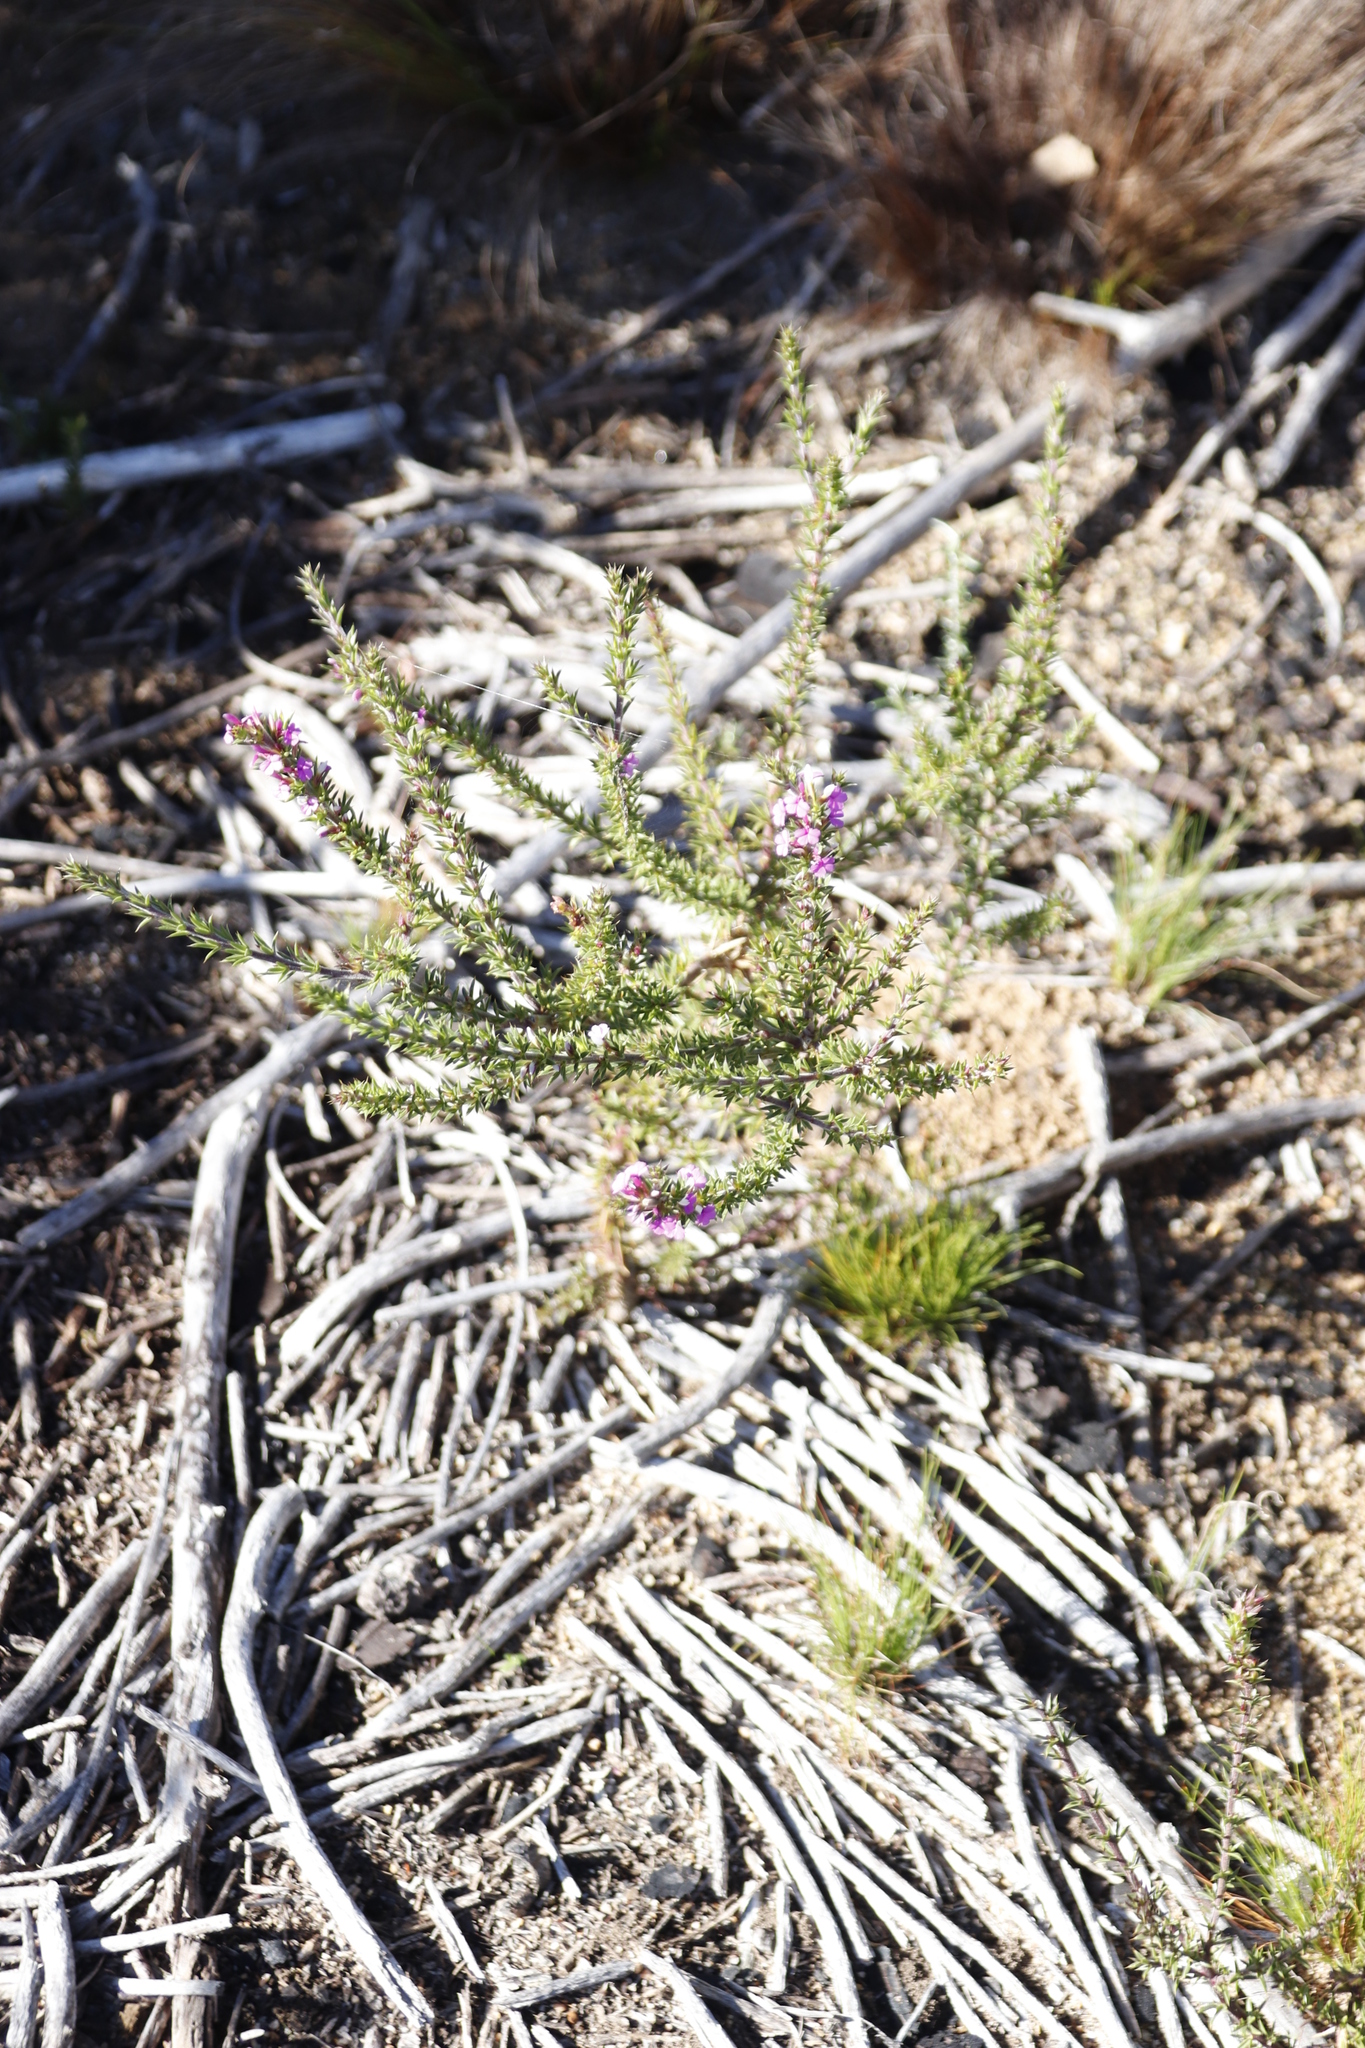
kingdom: Plantae
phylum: Tracheophyta
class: Magnoliopsida
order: Fabales
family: Polygalaceae
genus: Muraltia
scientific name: Muraltia heisteria
